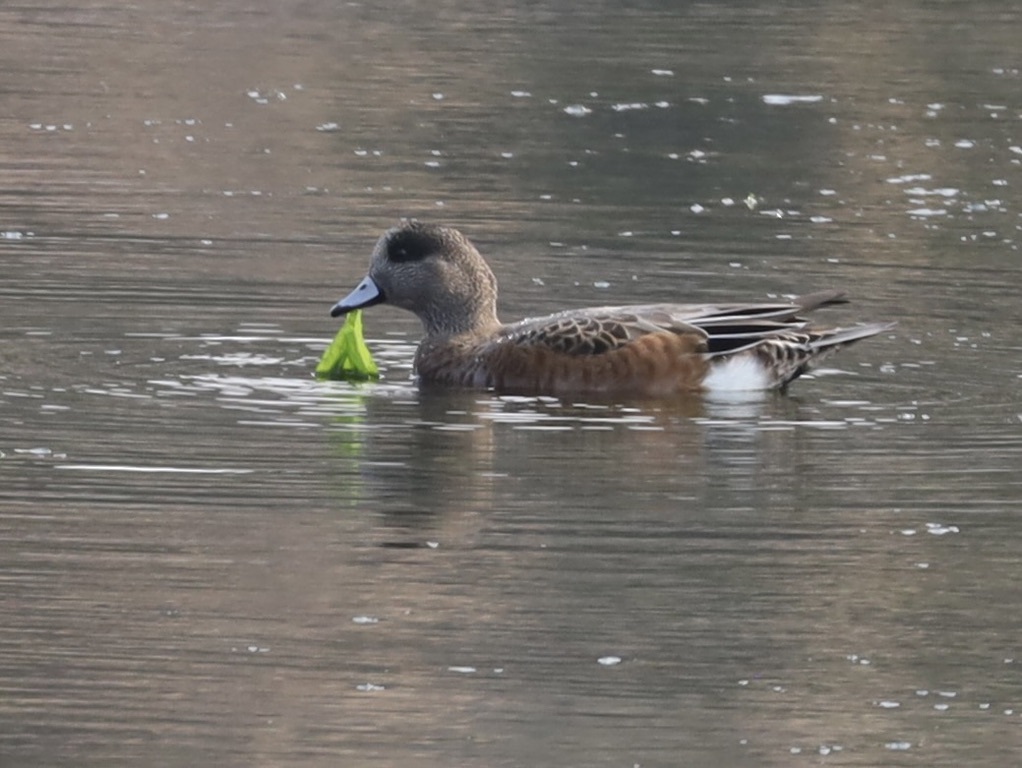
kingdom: Animalia
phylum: Chordata
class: Aves
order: Anseriformes
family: Anatidae
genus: Mareca
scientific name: Mareca americana
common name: American wigeon
